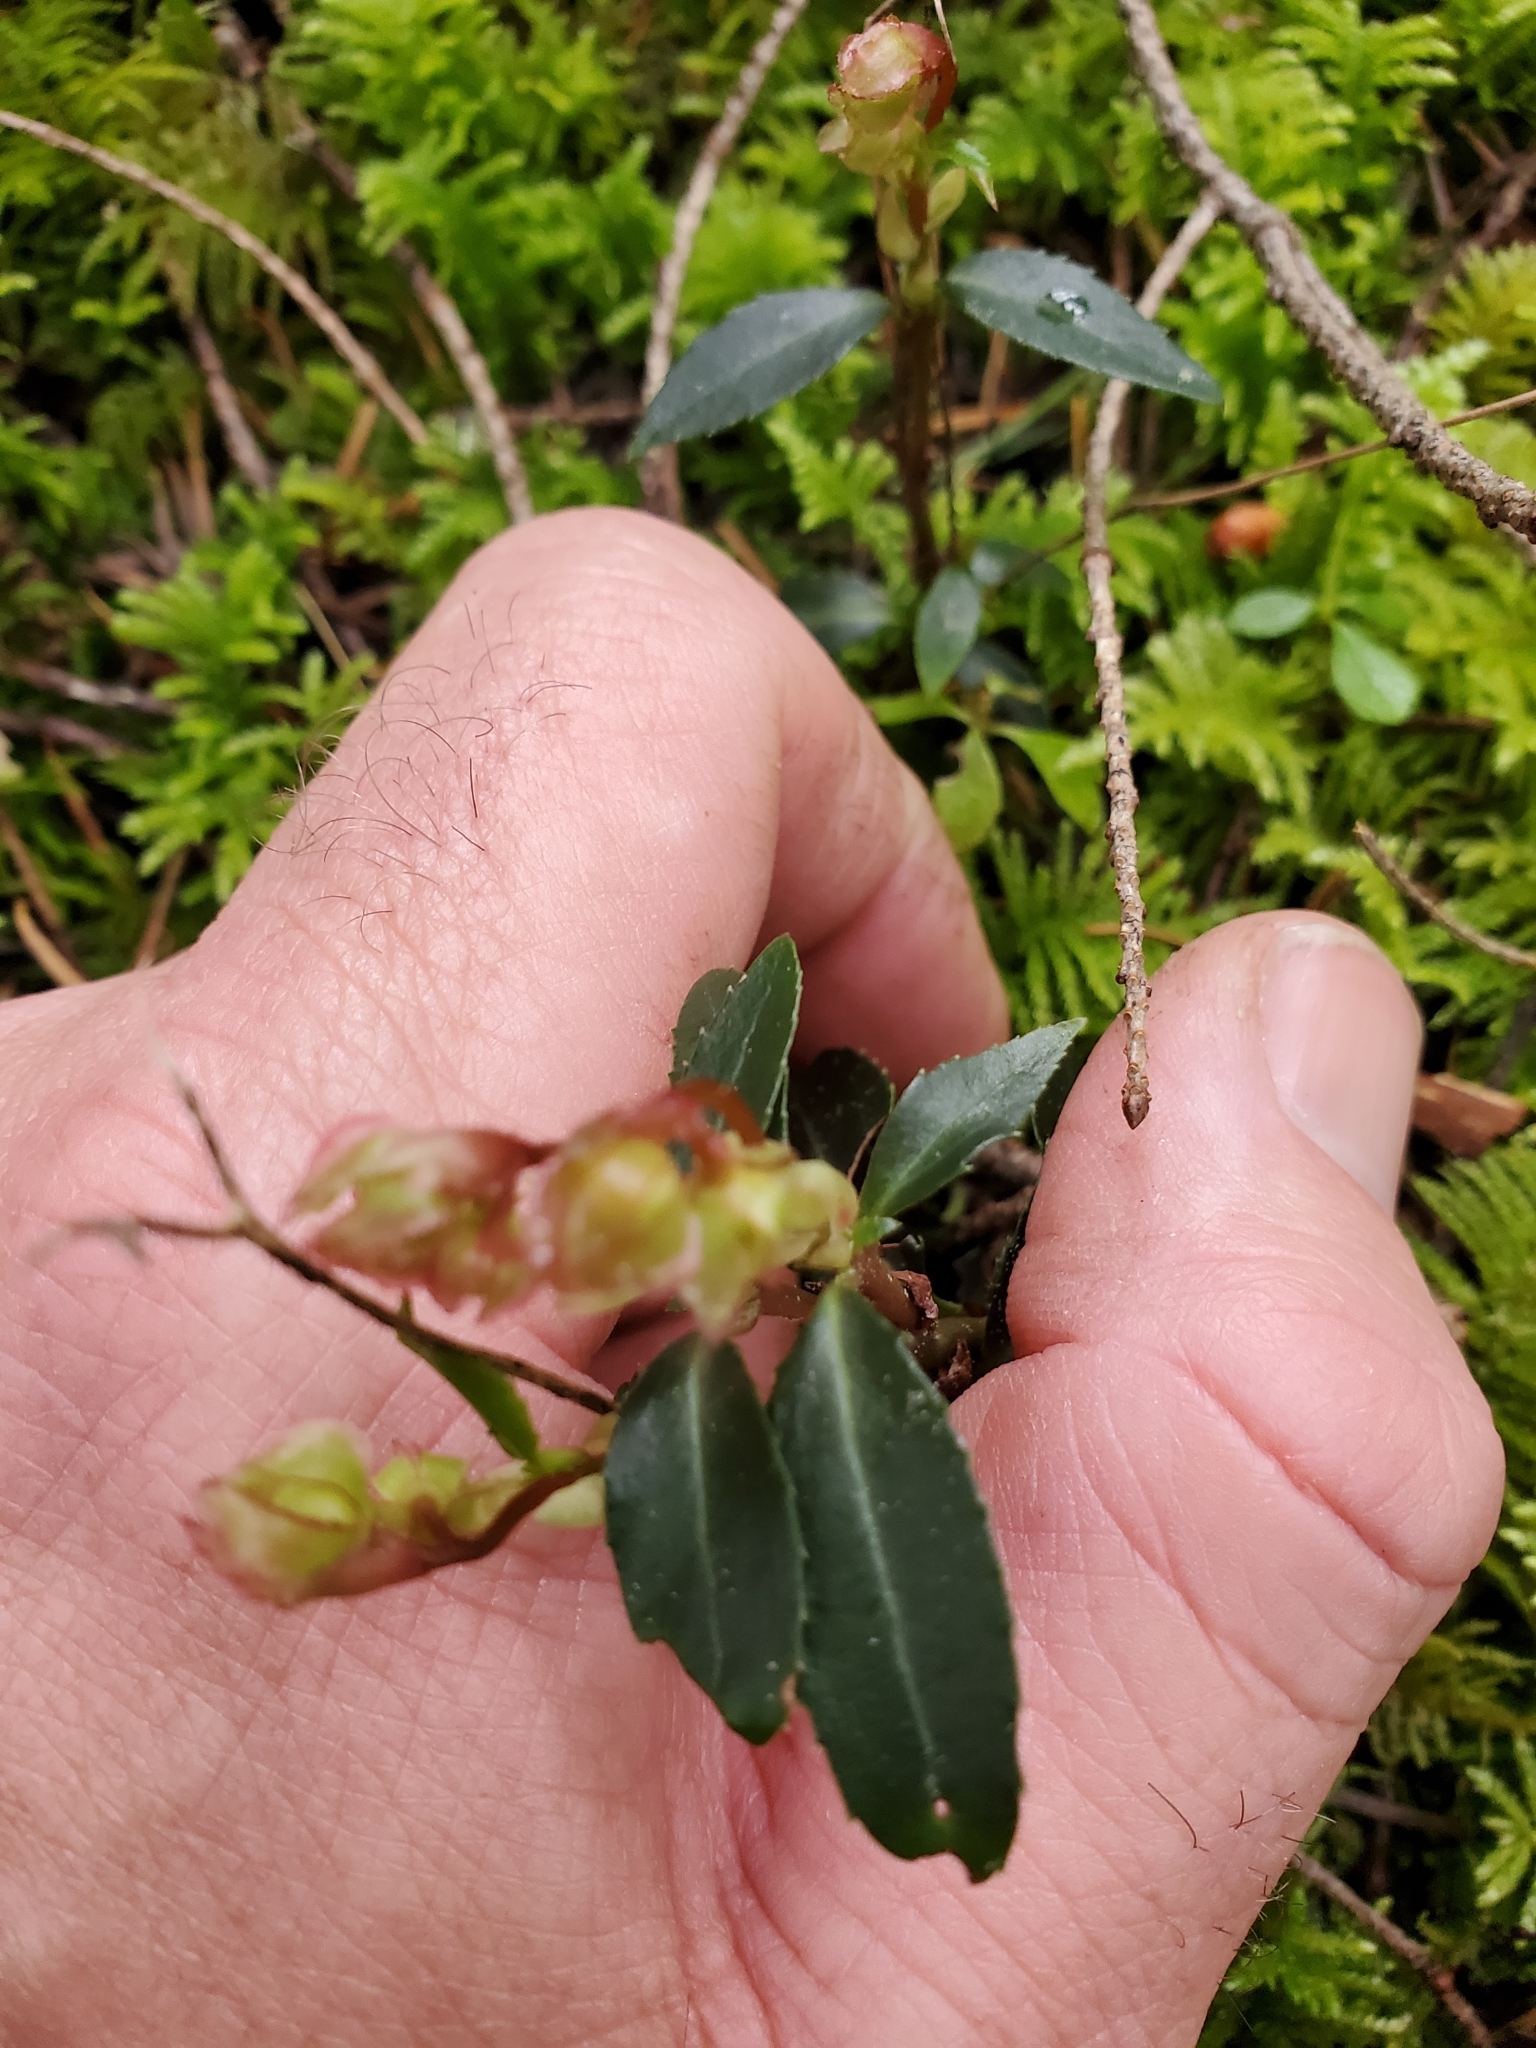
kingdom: Plantae
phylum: Tracheophyta
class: Magnoliopsida
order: Ericales
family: Ericaceae
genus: Chimaphila
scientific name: Chimaphila menziesii
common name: Menzies' pipsissewa
